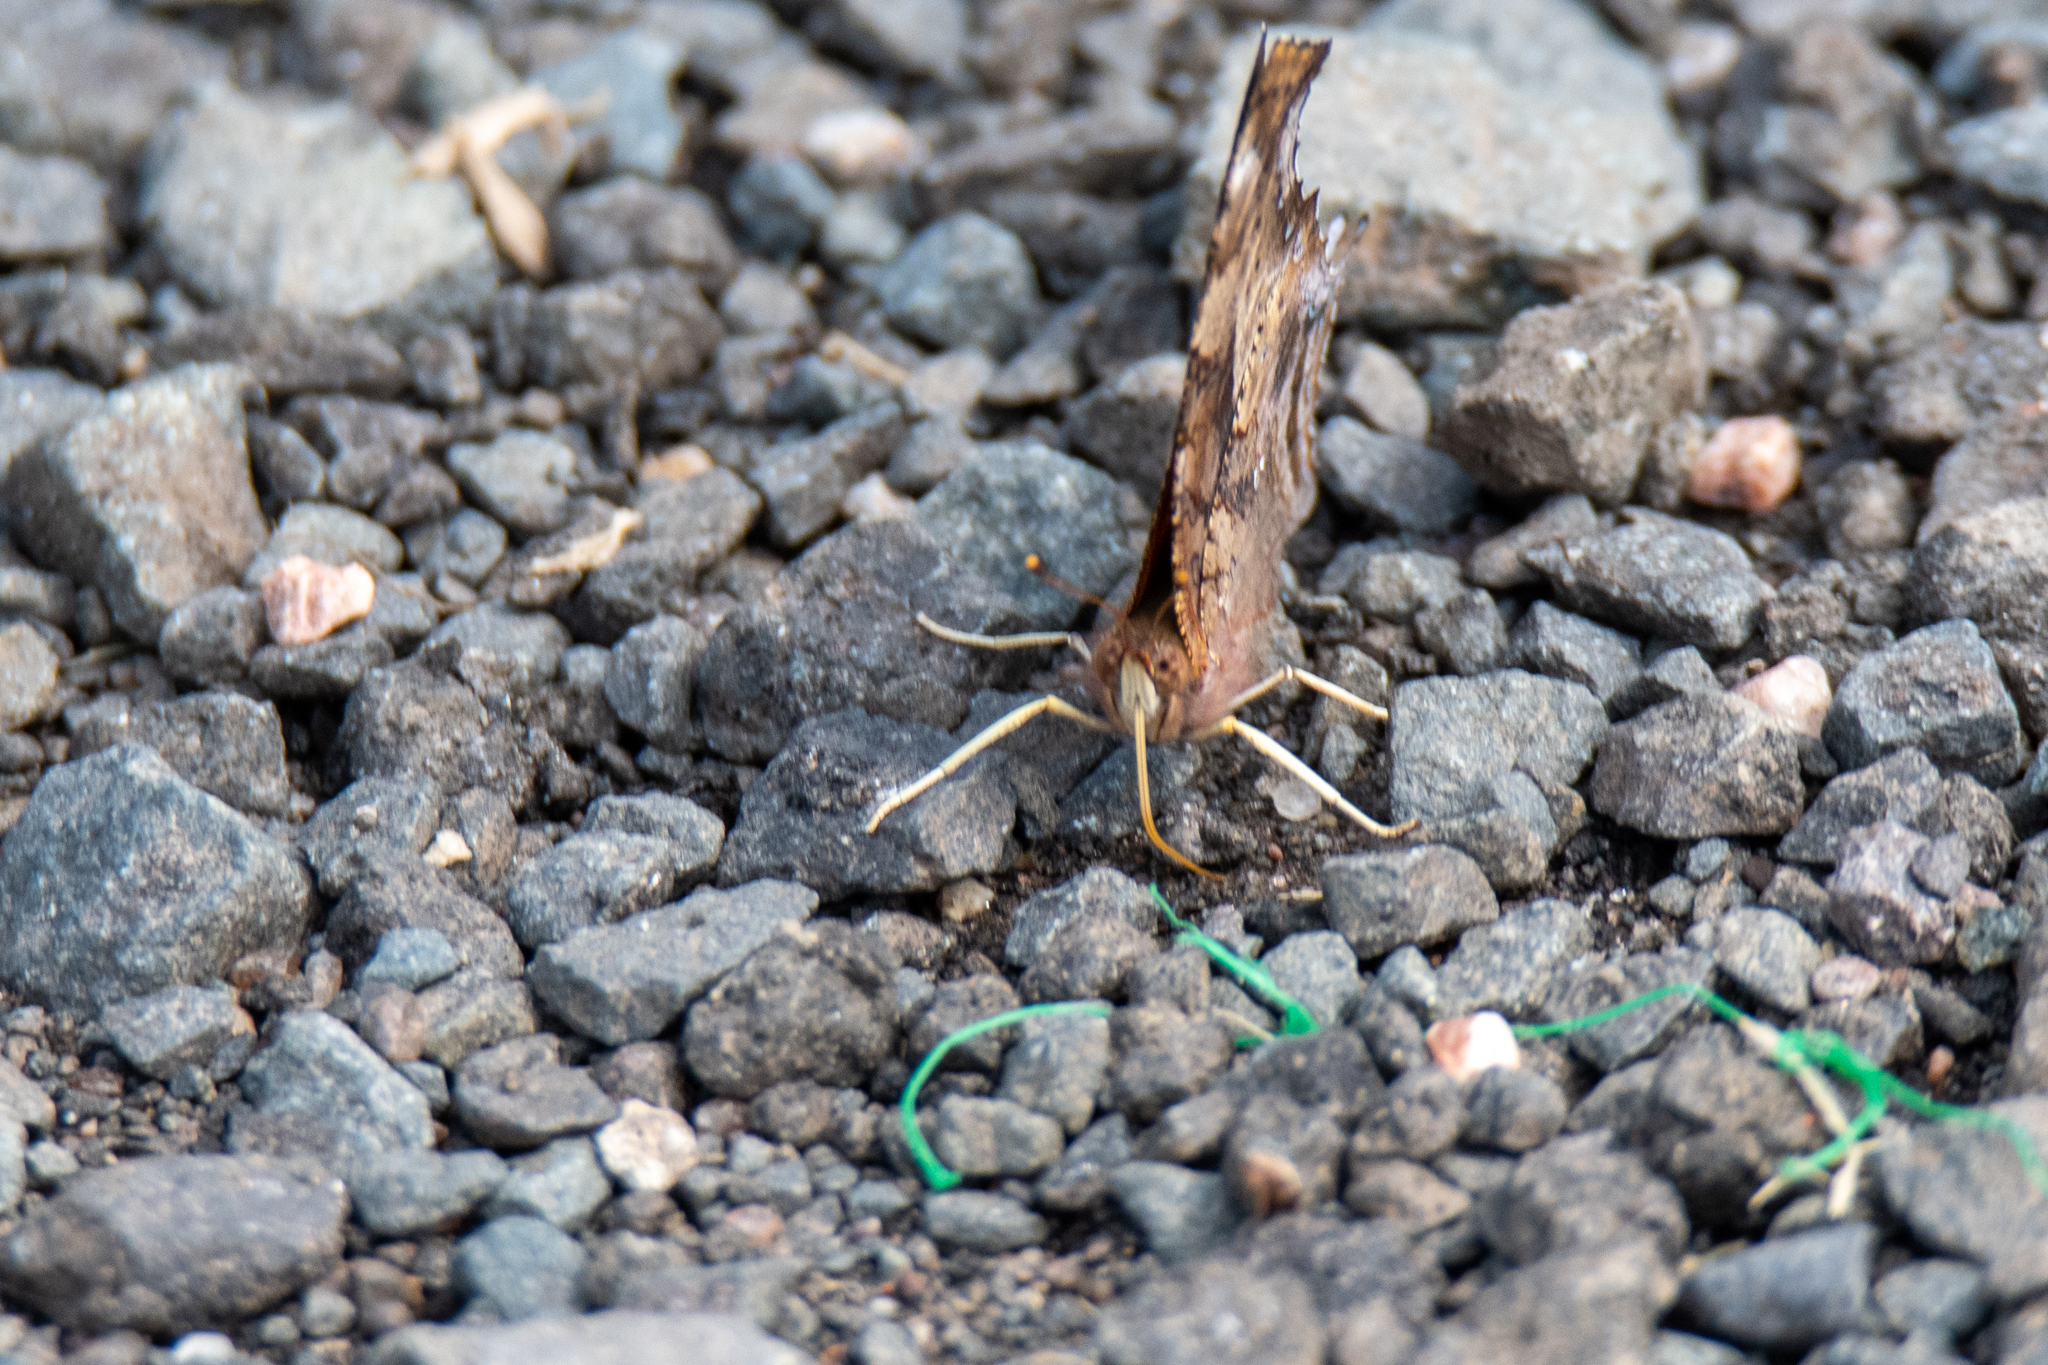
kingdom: Animalia
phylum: Arthropoda
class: Insecta
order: Lepidoptera
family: Nymphalidae
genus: Polygonia
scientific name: Polygonia interrogationis
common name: Question mark
